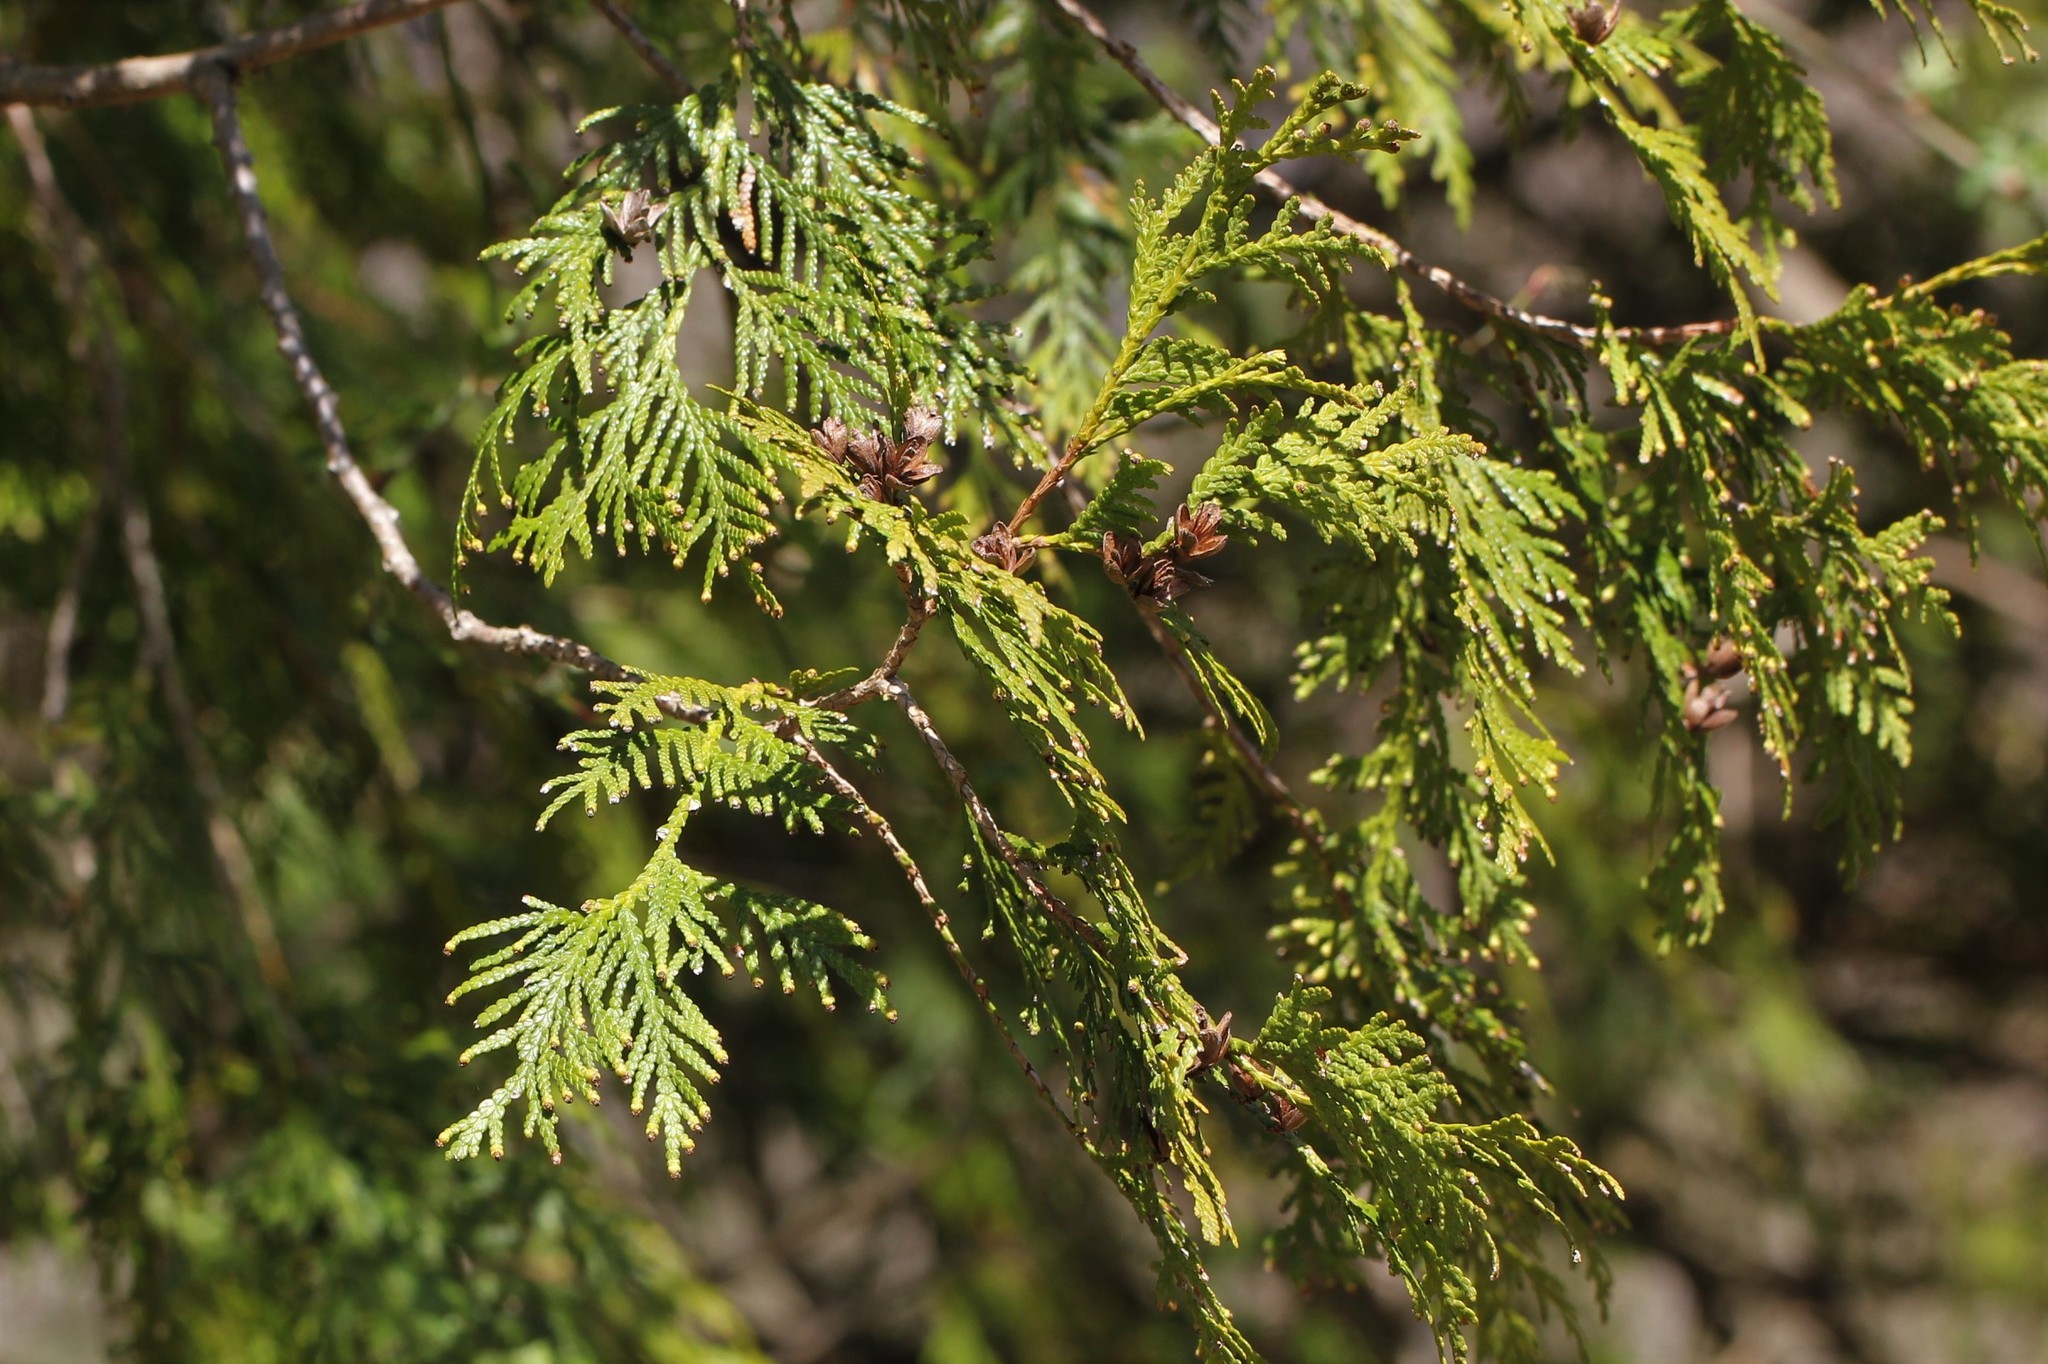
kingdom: Plantae
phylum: Tracheophyta
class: Pinopsida
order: Pinales
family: Cupressaceae
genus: Thuja
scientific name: Thuja occidentalis
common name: Northern white-cedar
